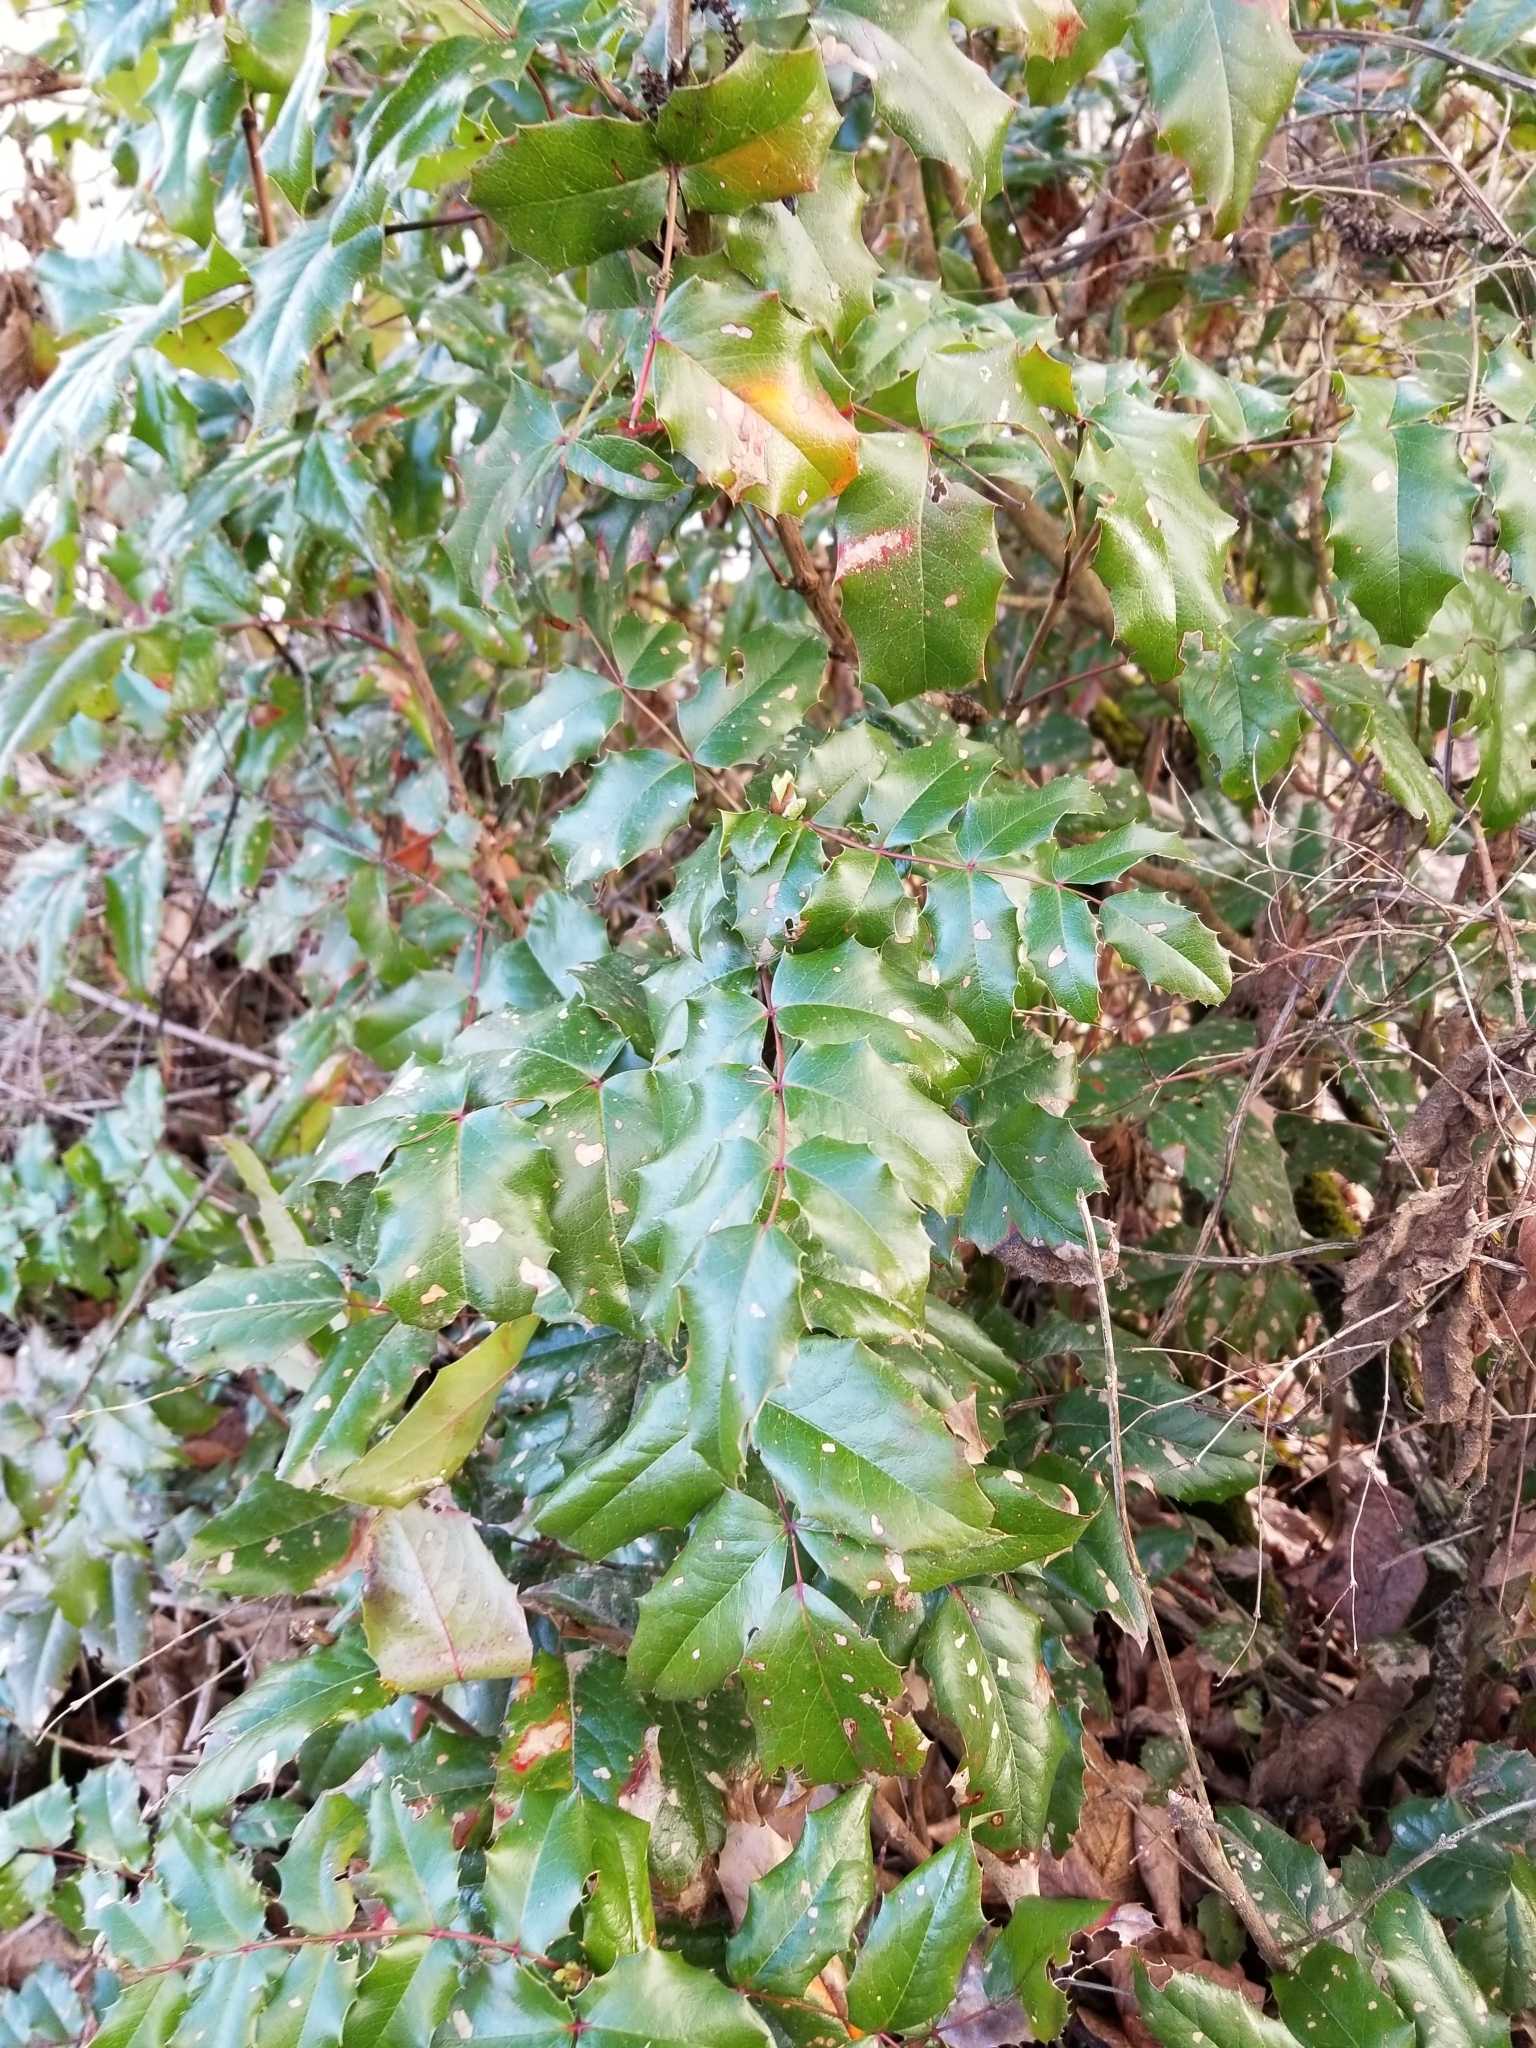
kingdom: Plantae
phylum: Tracheophyta
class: Magnoliopsida
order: Ranunculales
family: Berberidaceae
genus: Mahonia
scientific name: Mahonia aquifolium
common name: Oregon-grape
